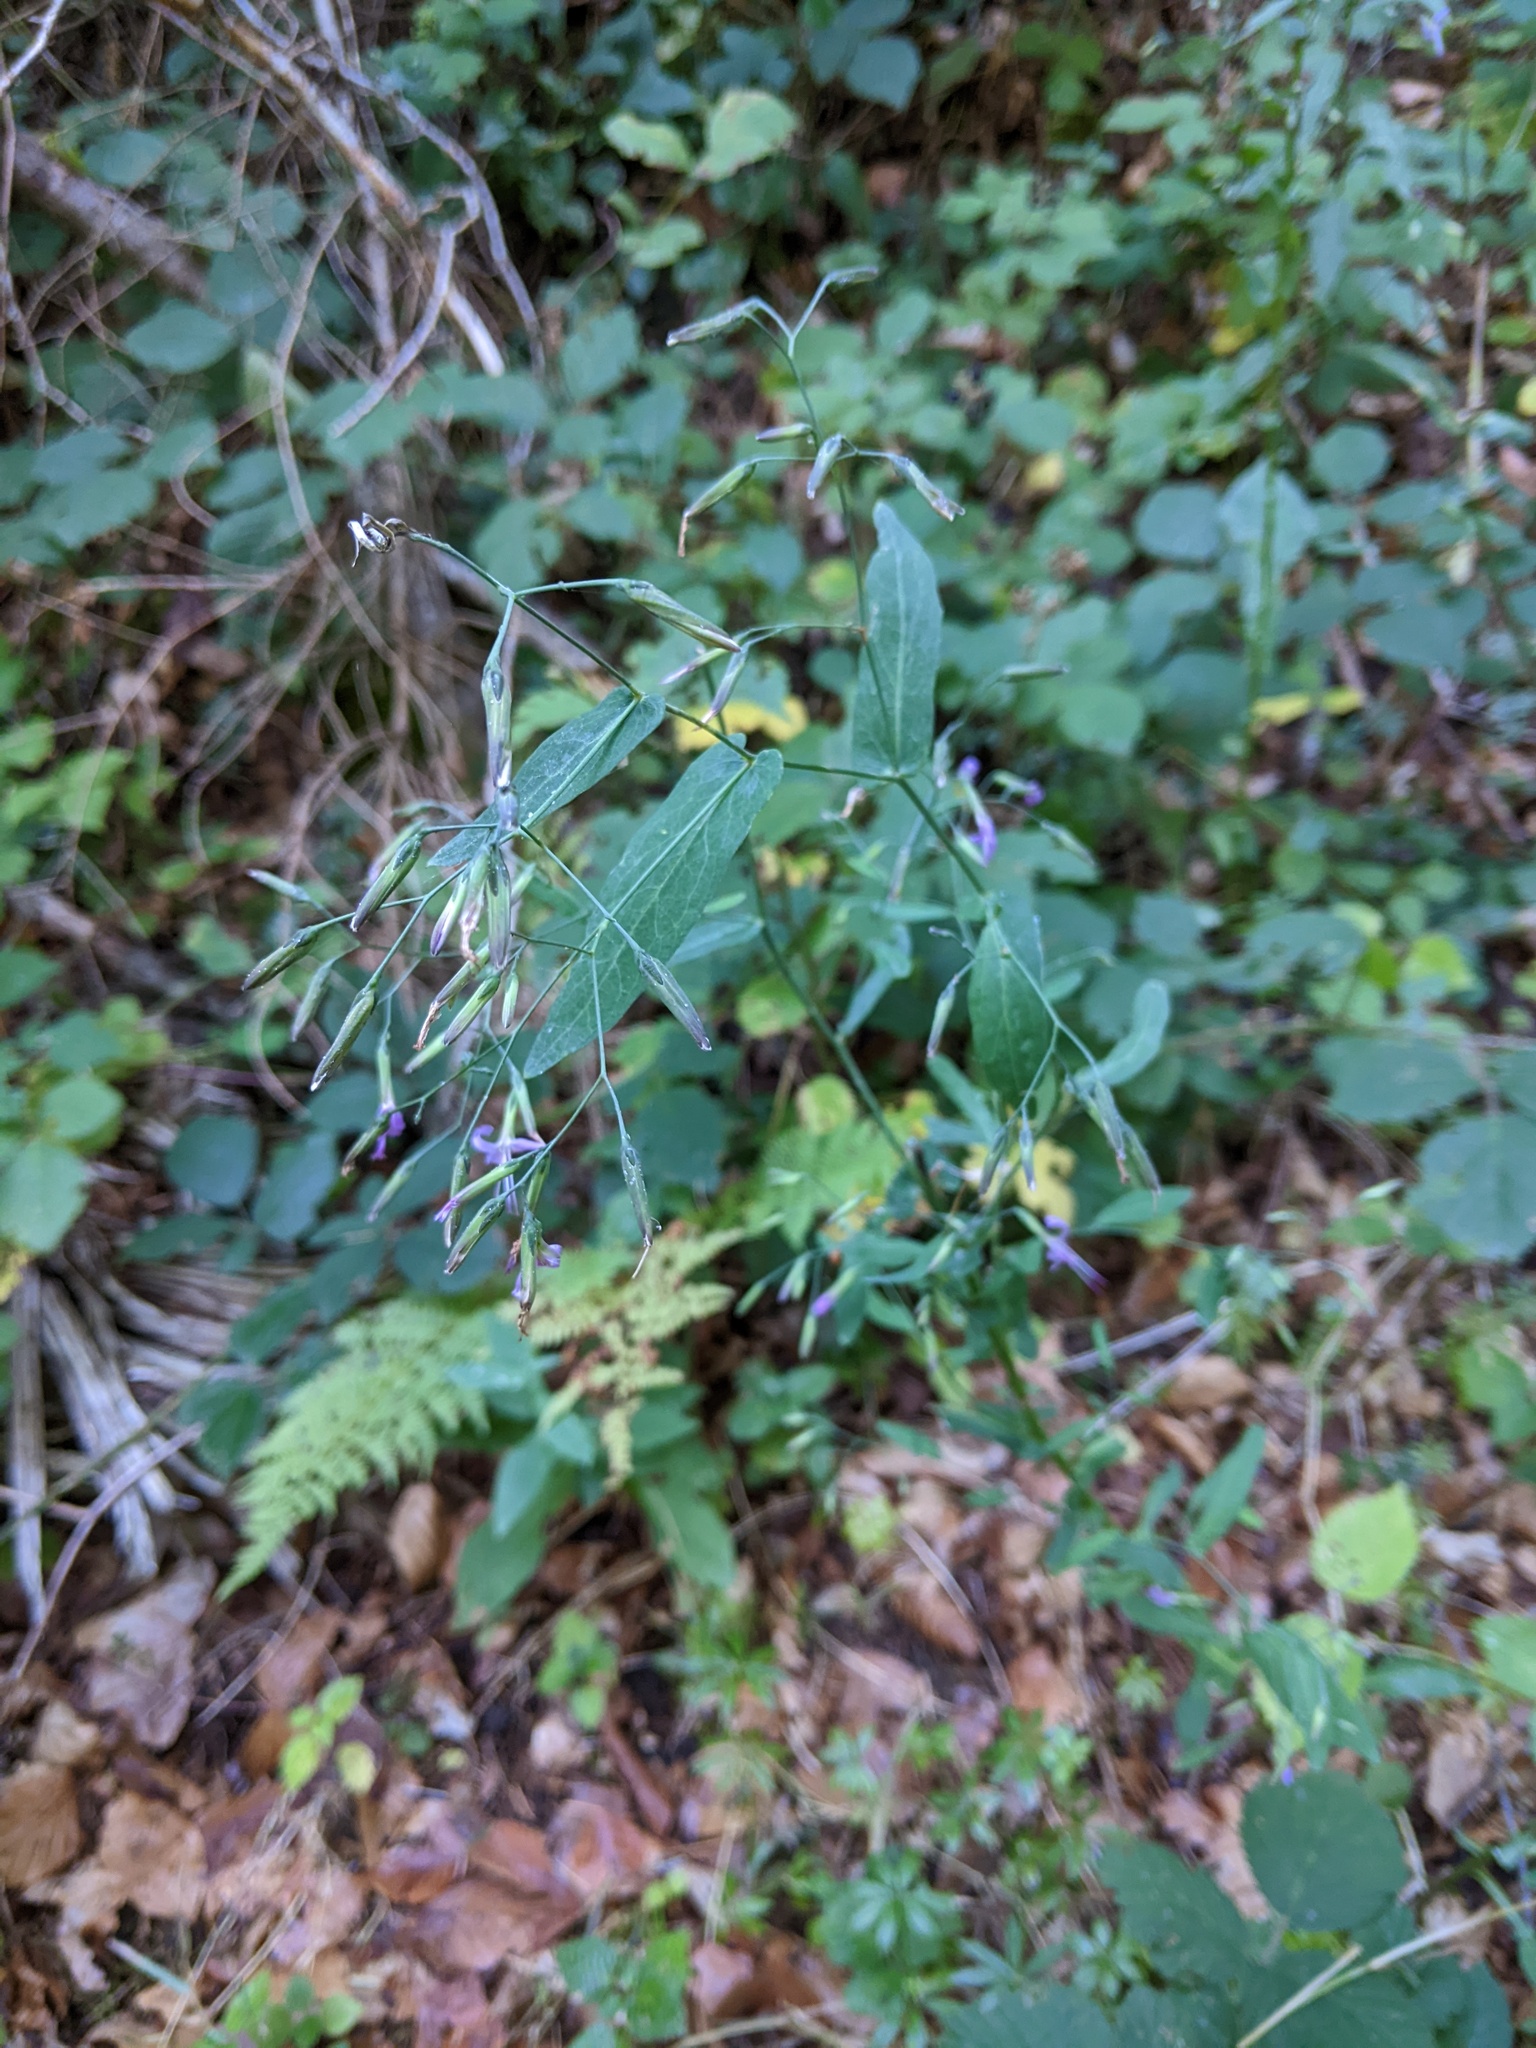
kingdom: Plantae
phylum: Tracheophyta
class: Magnoliopsida
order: Asterales
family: Asteraceae
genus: Prenanthes
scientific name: Prenanthes purpurea
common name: Purple lettuce
